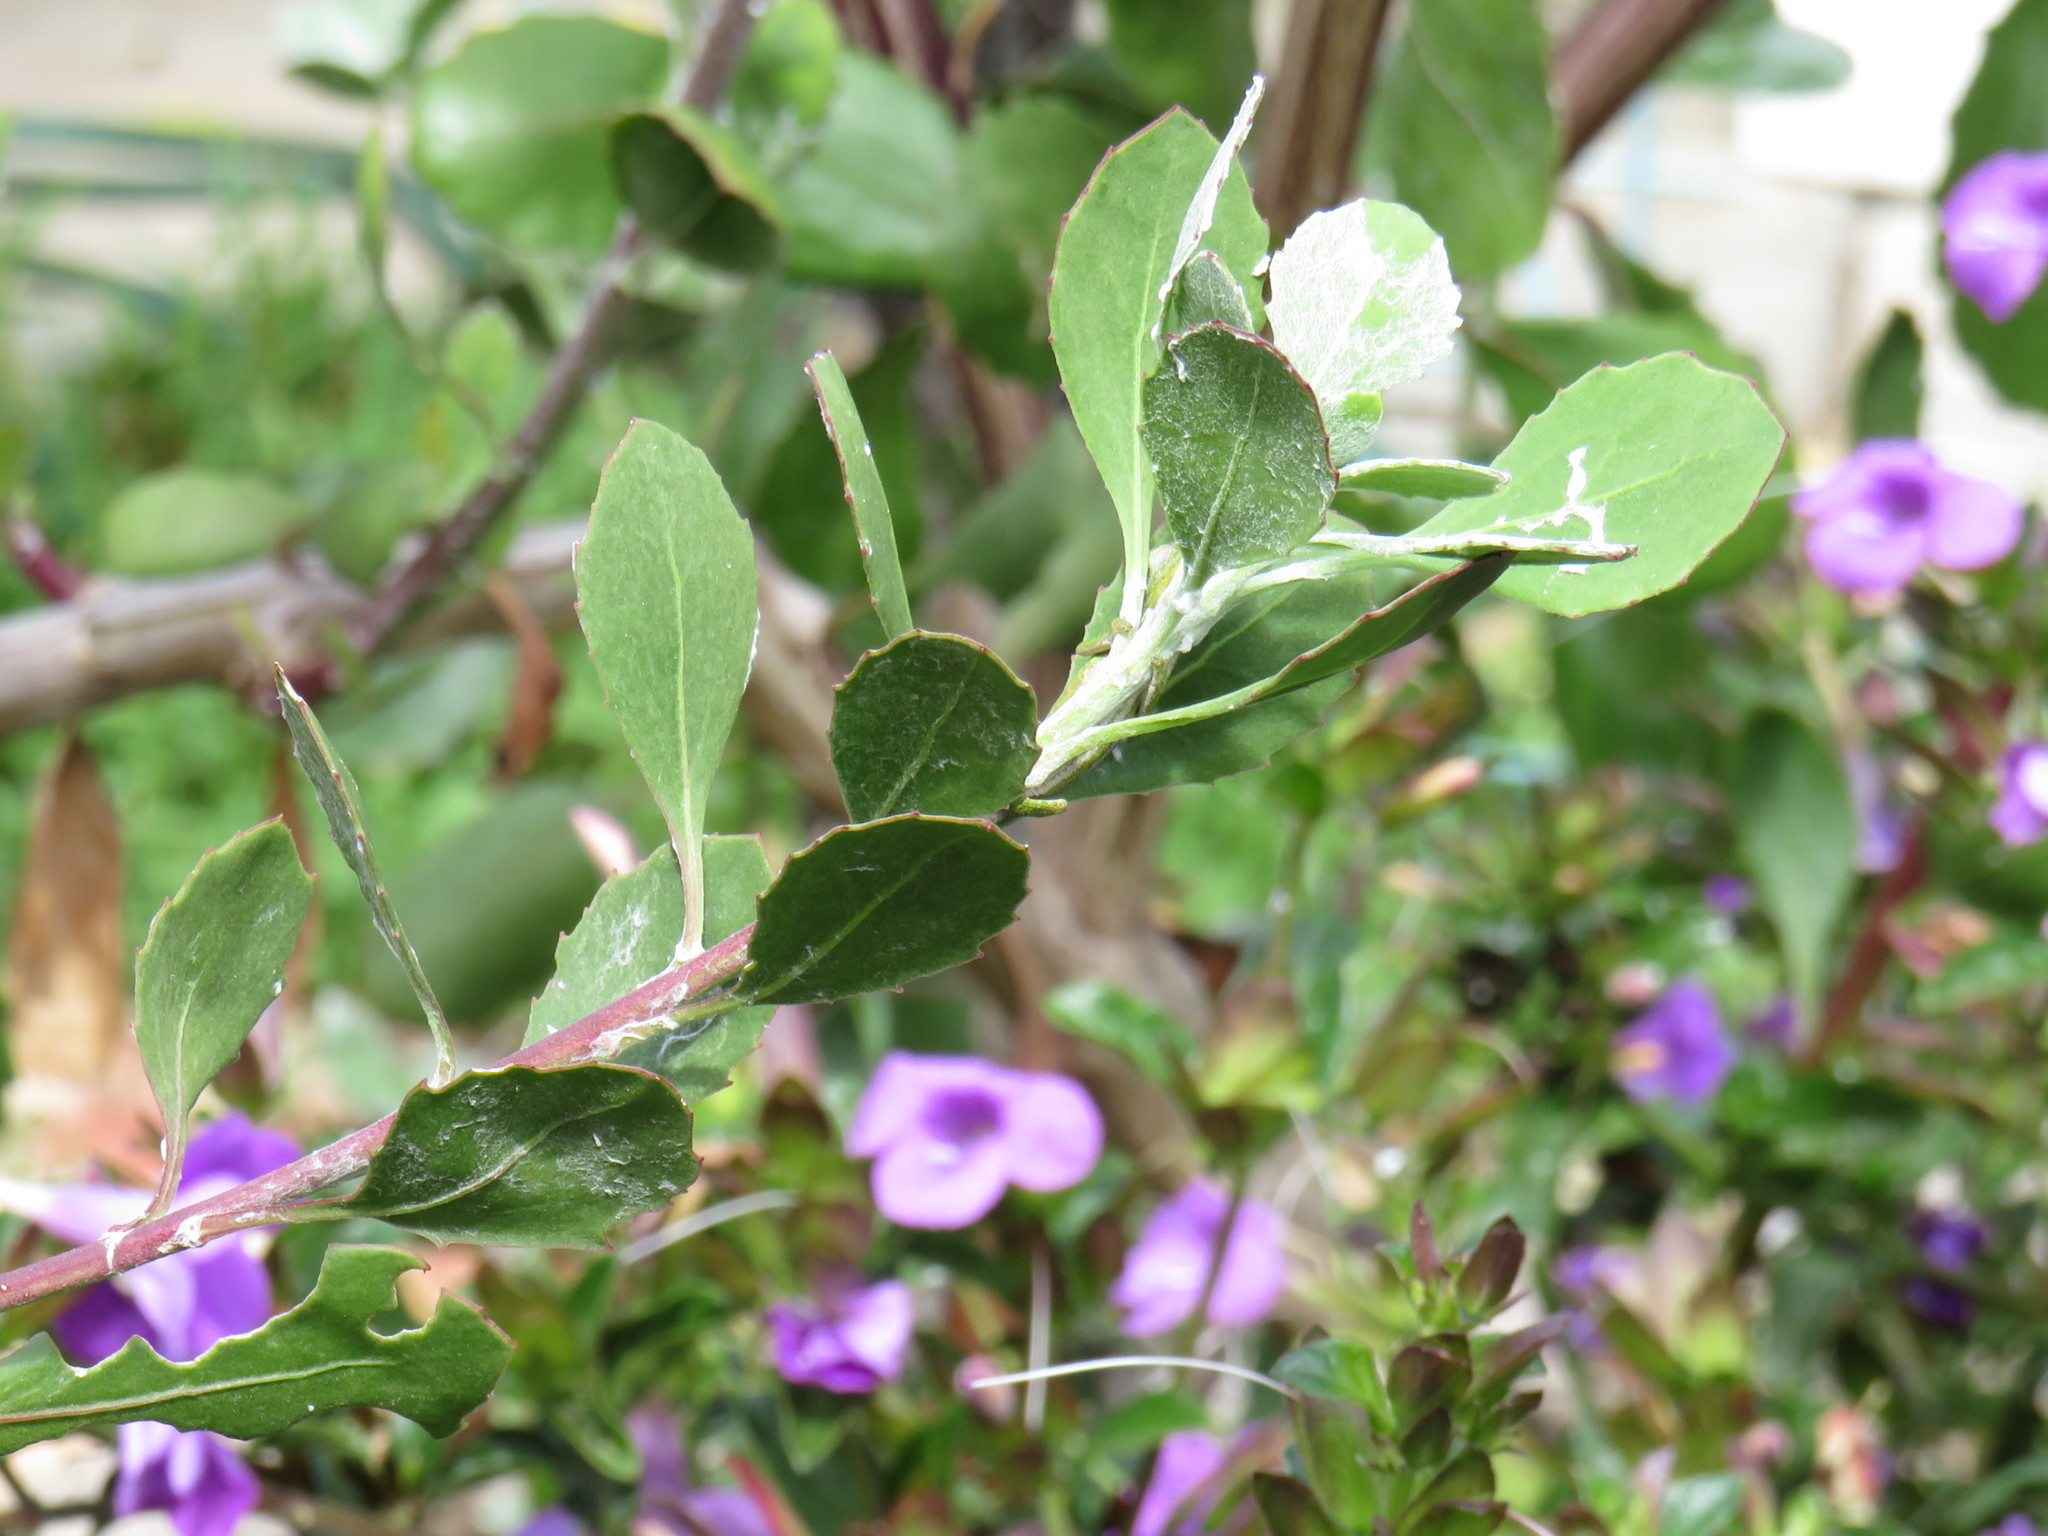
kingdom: Animalia
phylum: Chordata
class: Squamata
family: Chamaeleonidae
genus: Bradypodion
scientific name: Bradypodion pumilum
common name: Cape dwarf chameleon
